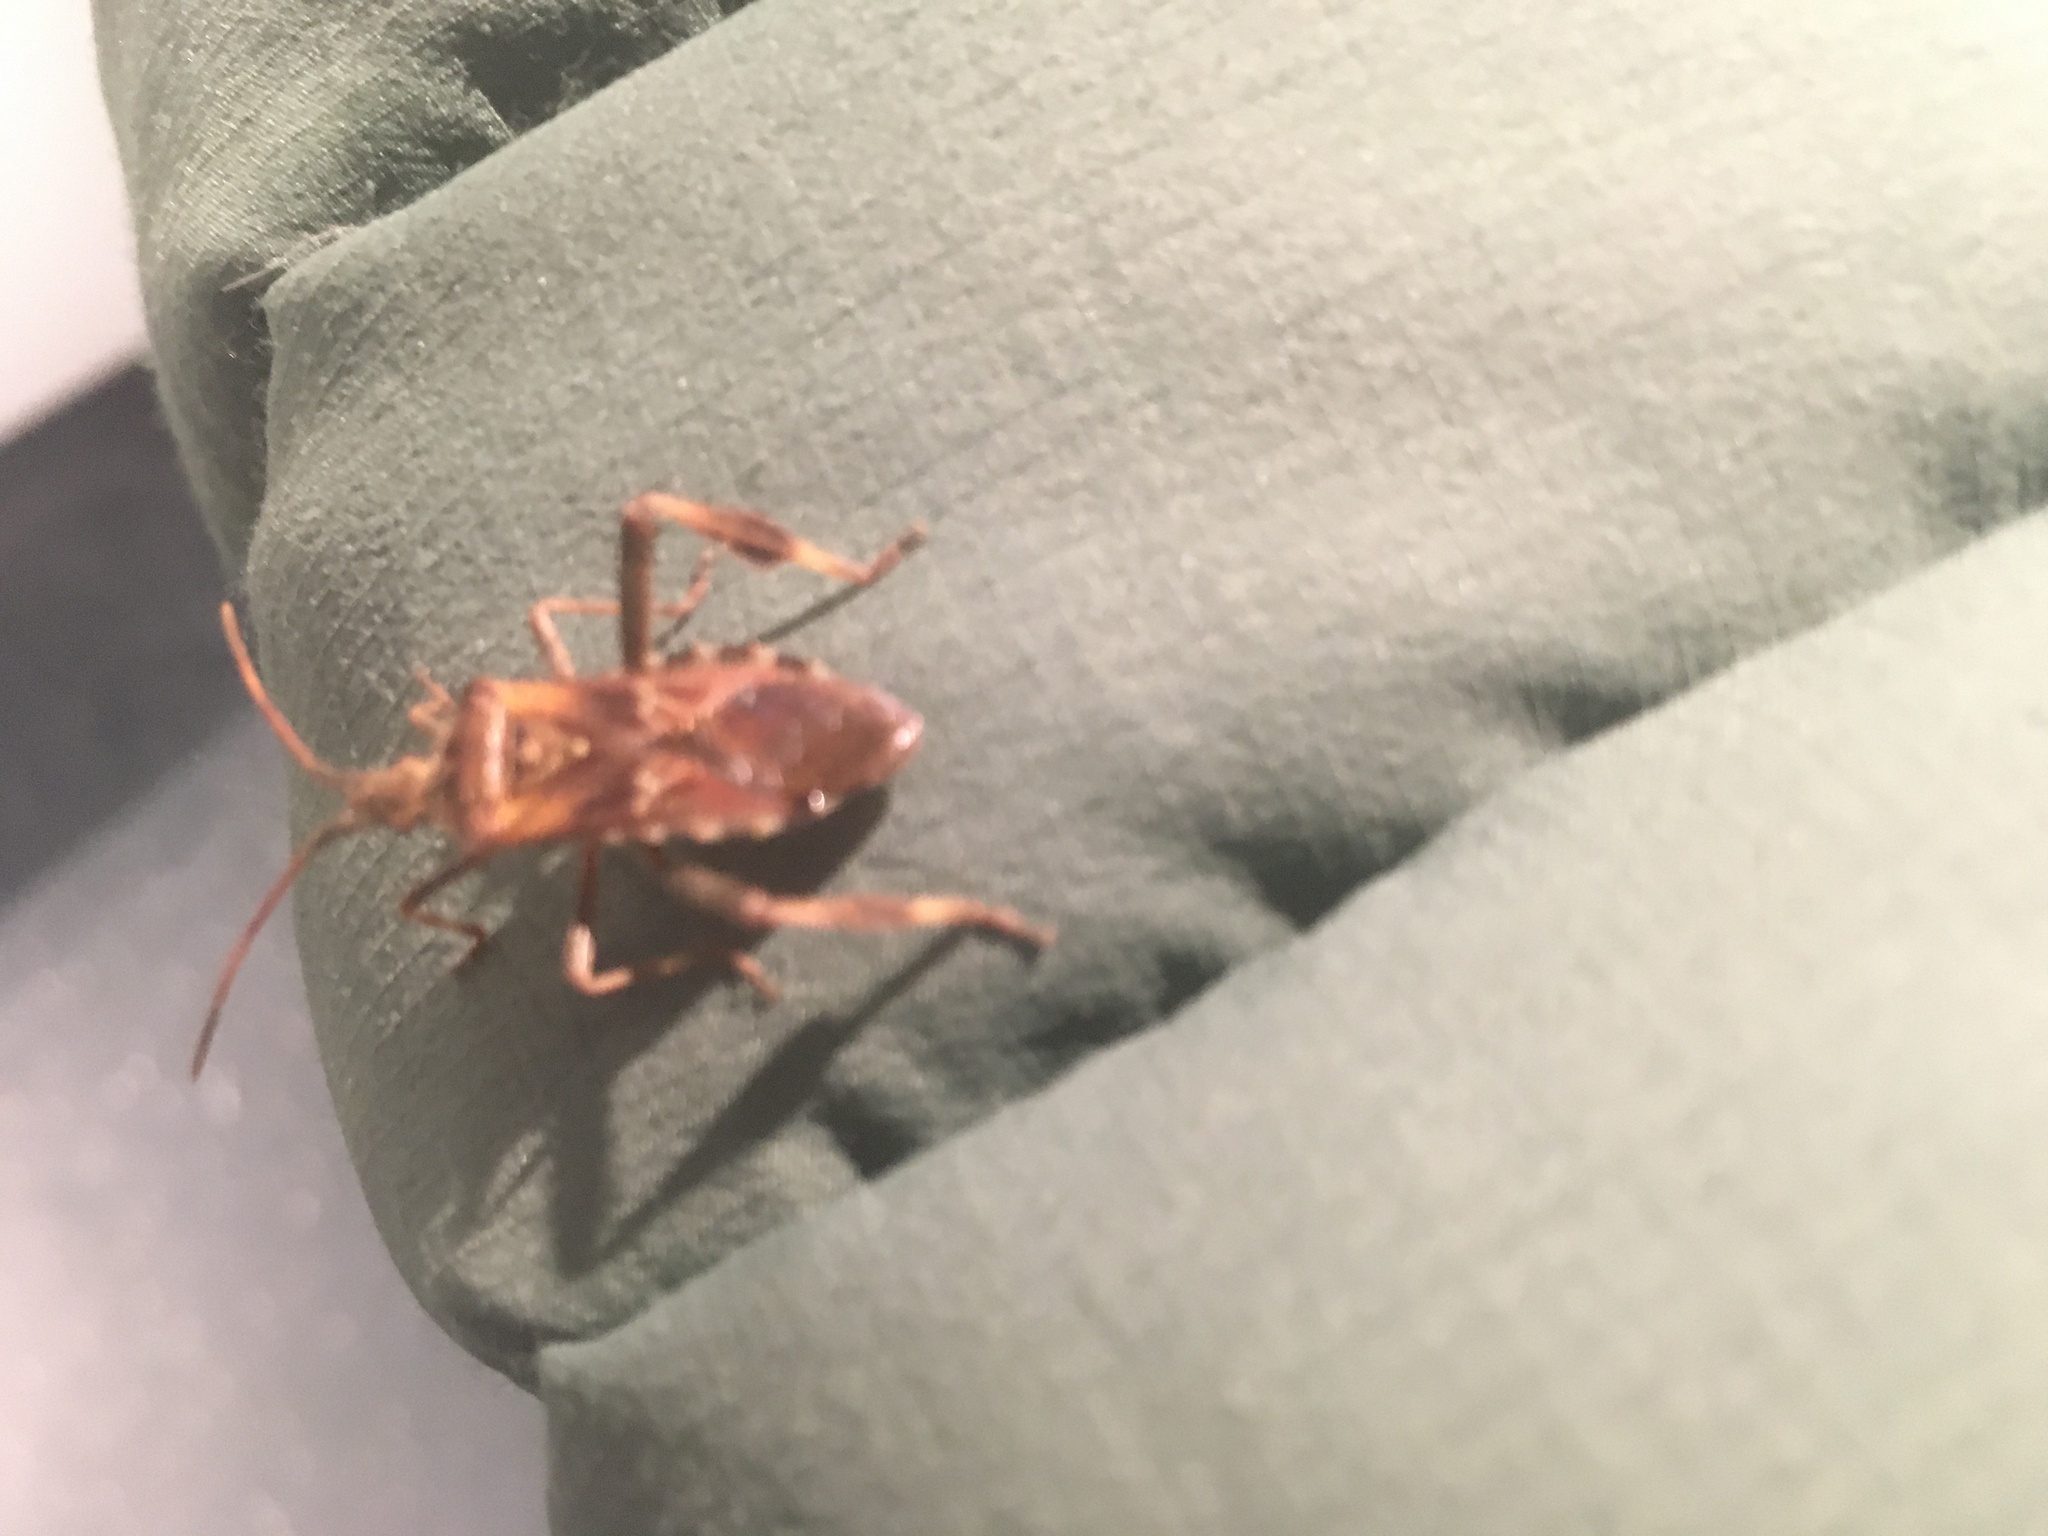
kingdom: Animalia
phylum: Arthropoda
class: Insecta
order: Hemiptera
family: Coreidae
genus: Leptoglossus
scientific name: Leptoglossus occidentalis
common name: Western conifer-seed bug
